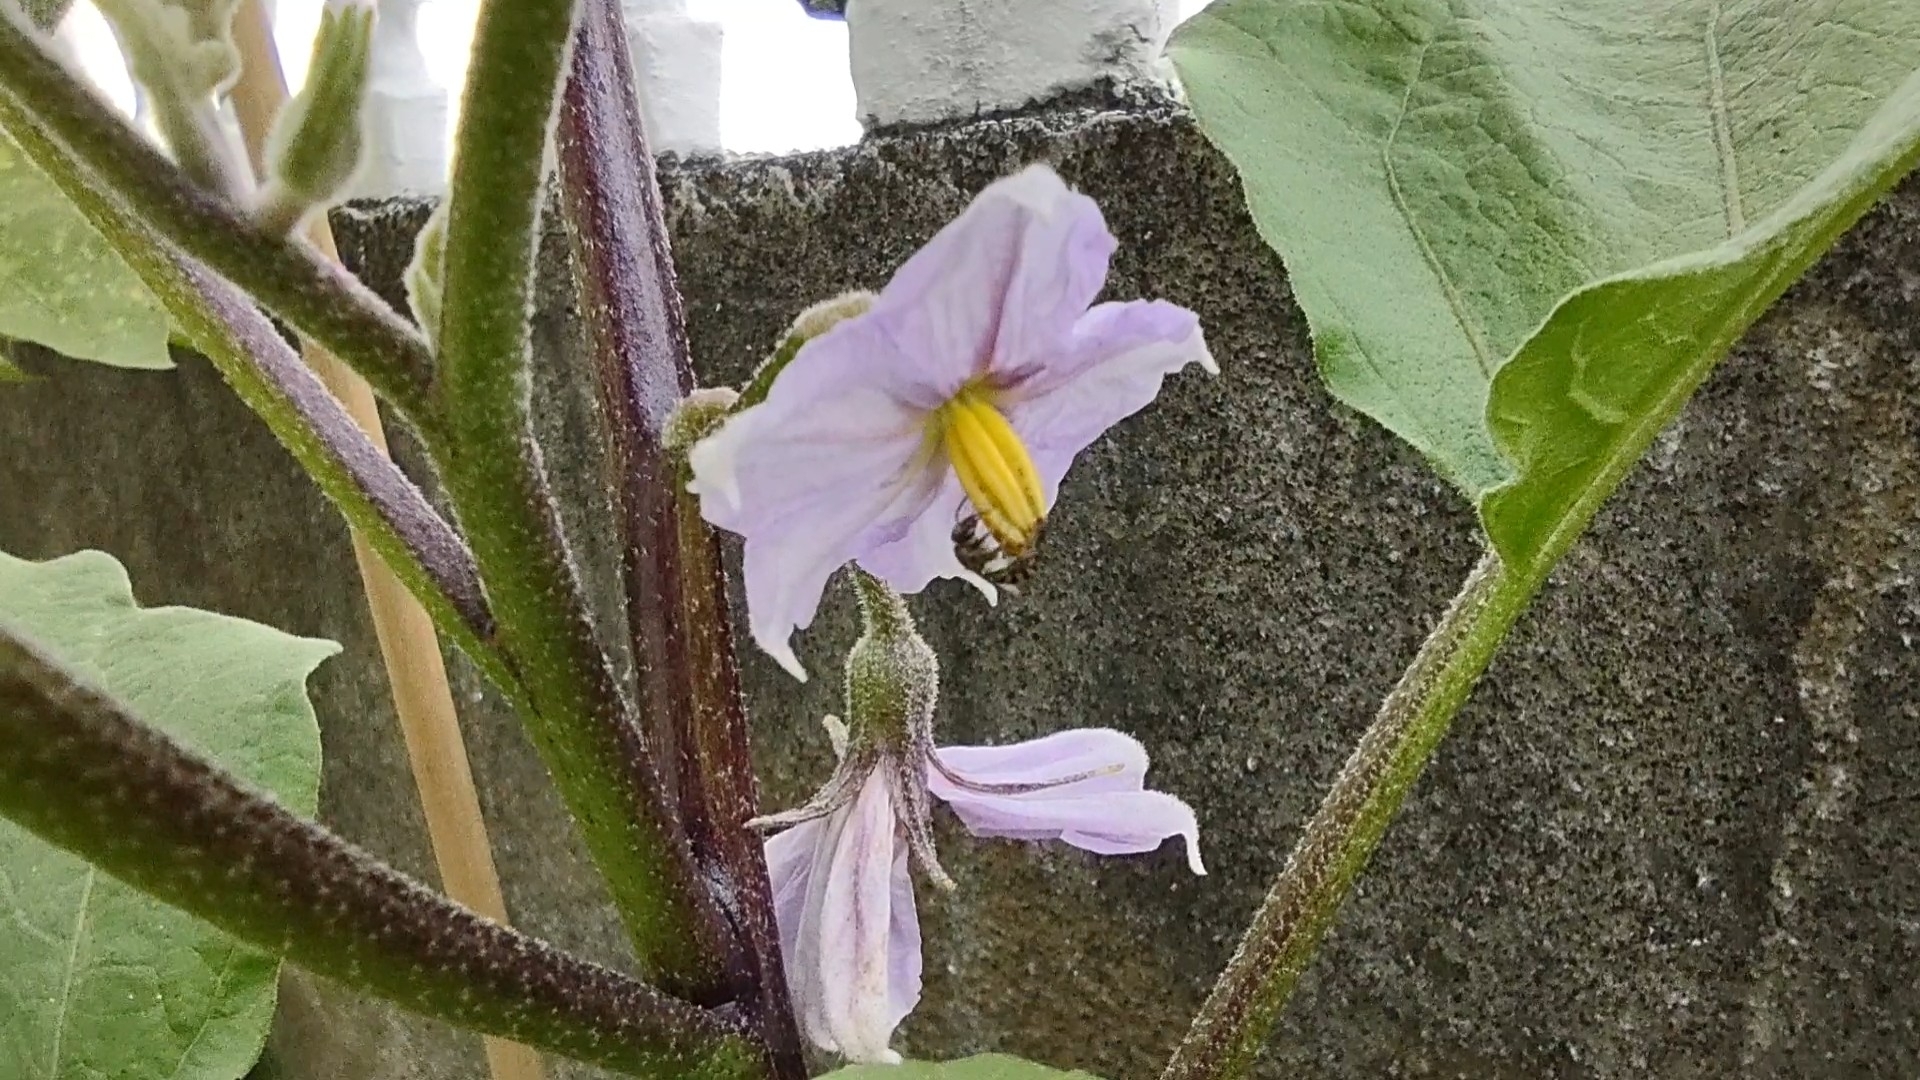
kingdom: Animalia
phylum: Arthropoda
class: Insecta
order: Hymenoptera
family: Halictidae
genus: Ctenonomia
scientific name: Ctenonomia
